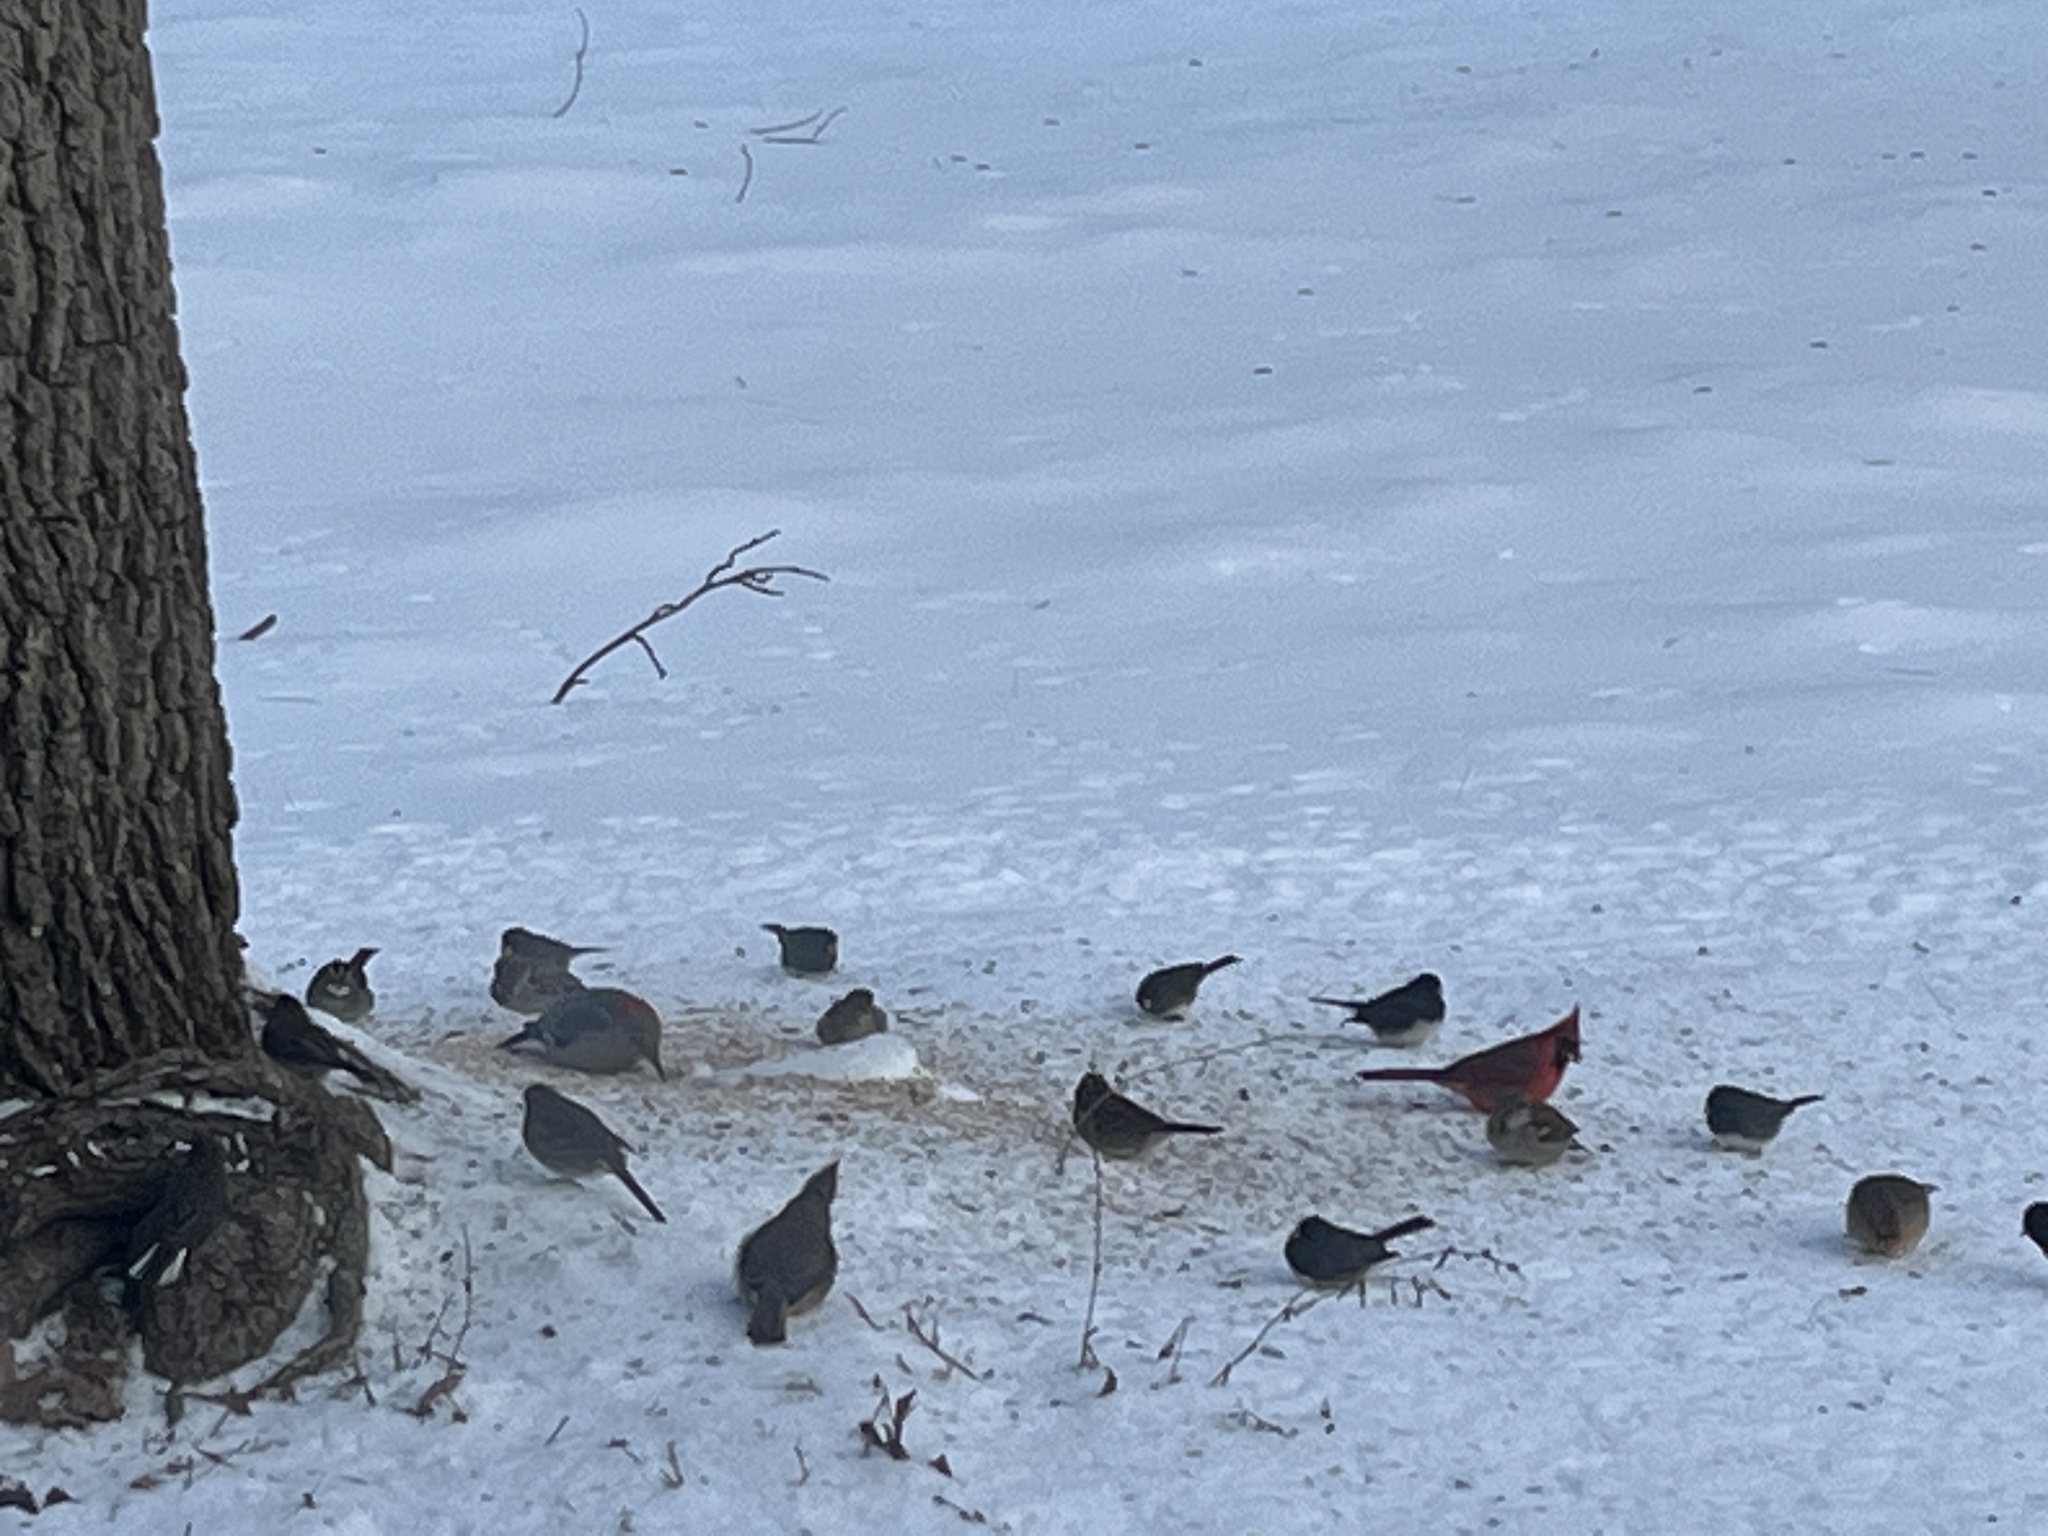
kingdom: Animalia
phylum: Chordata
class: Aves
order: Piciformes
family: Picidae
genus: Melanerpes
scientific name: Melanerpes carolinus
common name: Red-bellied woodpecker
